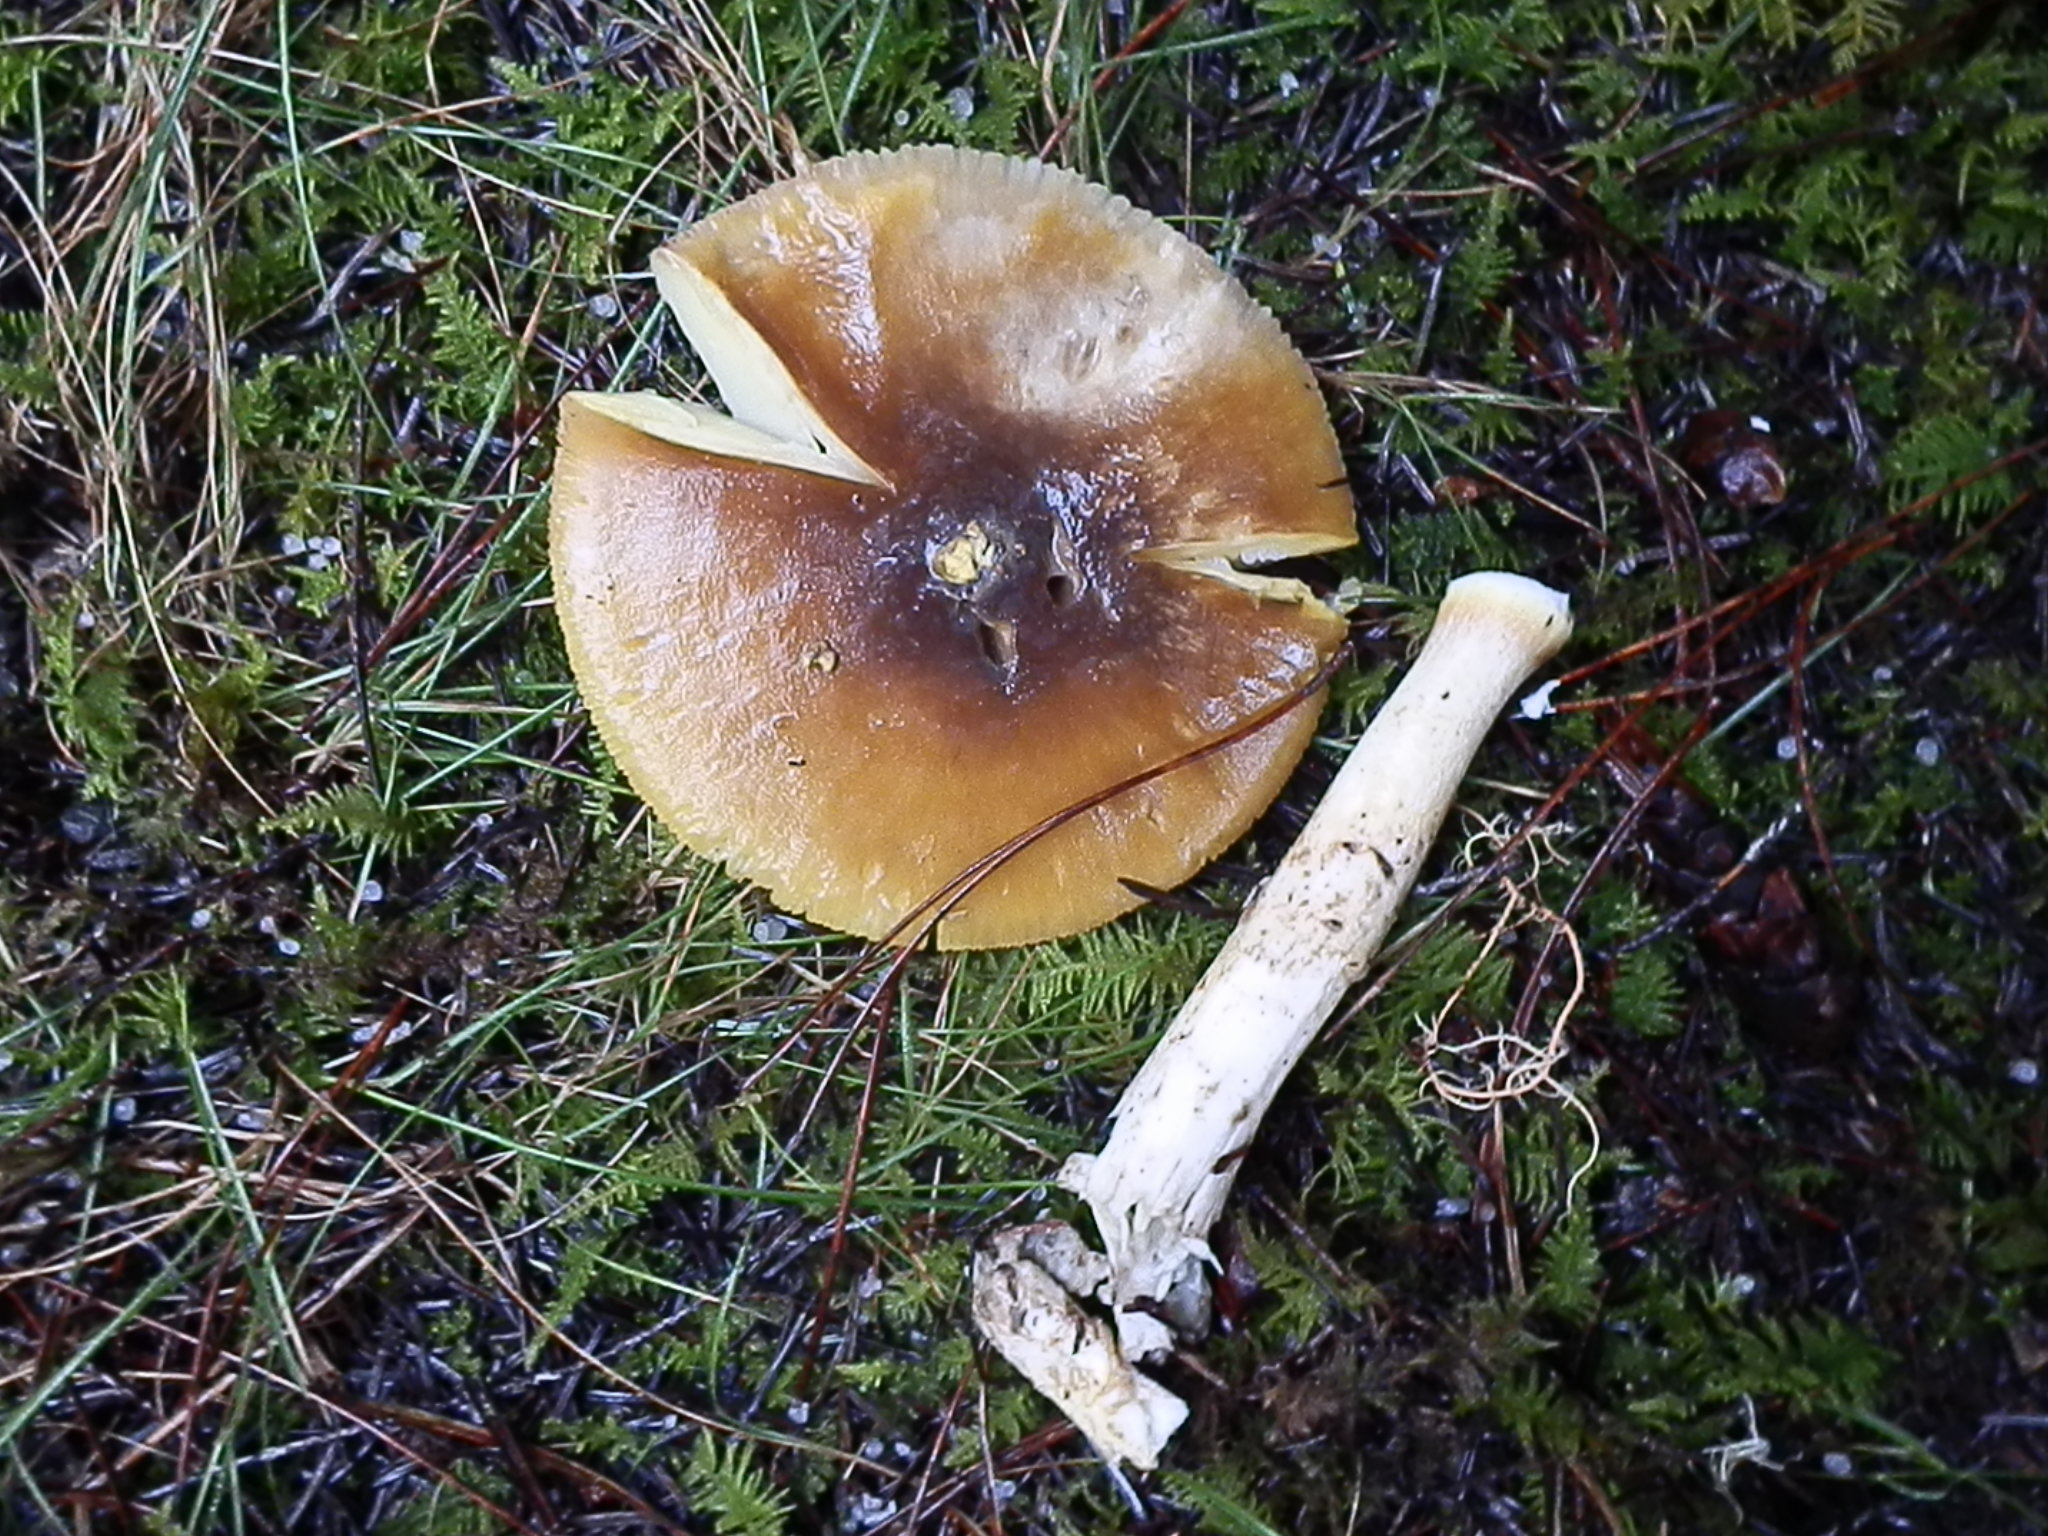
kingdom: Fungi
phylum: Basidiomycota
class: Agaricomycetes
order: Agaricales
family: Amanitaceae
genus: Amanita
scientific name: Amanita augusta
